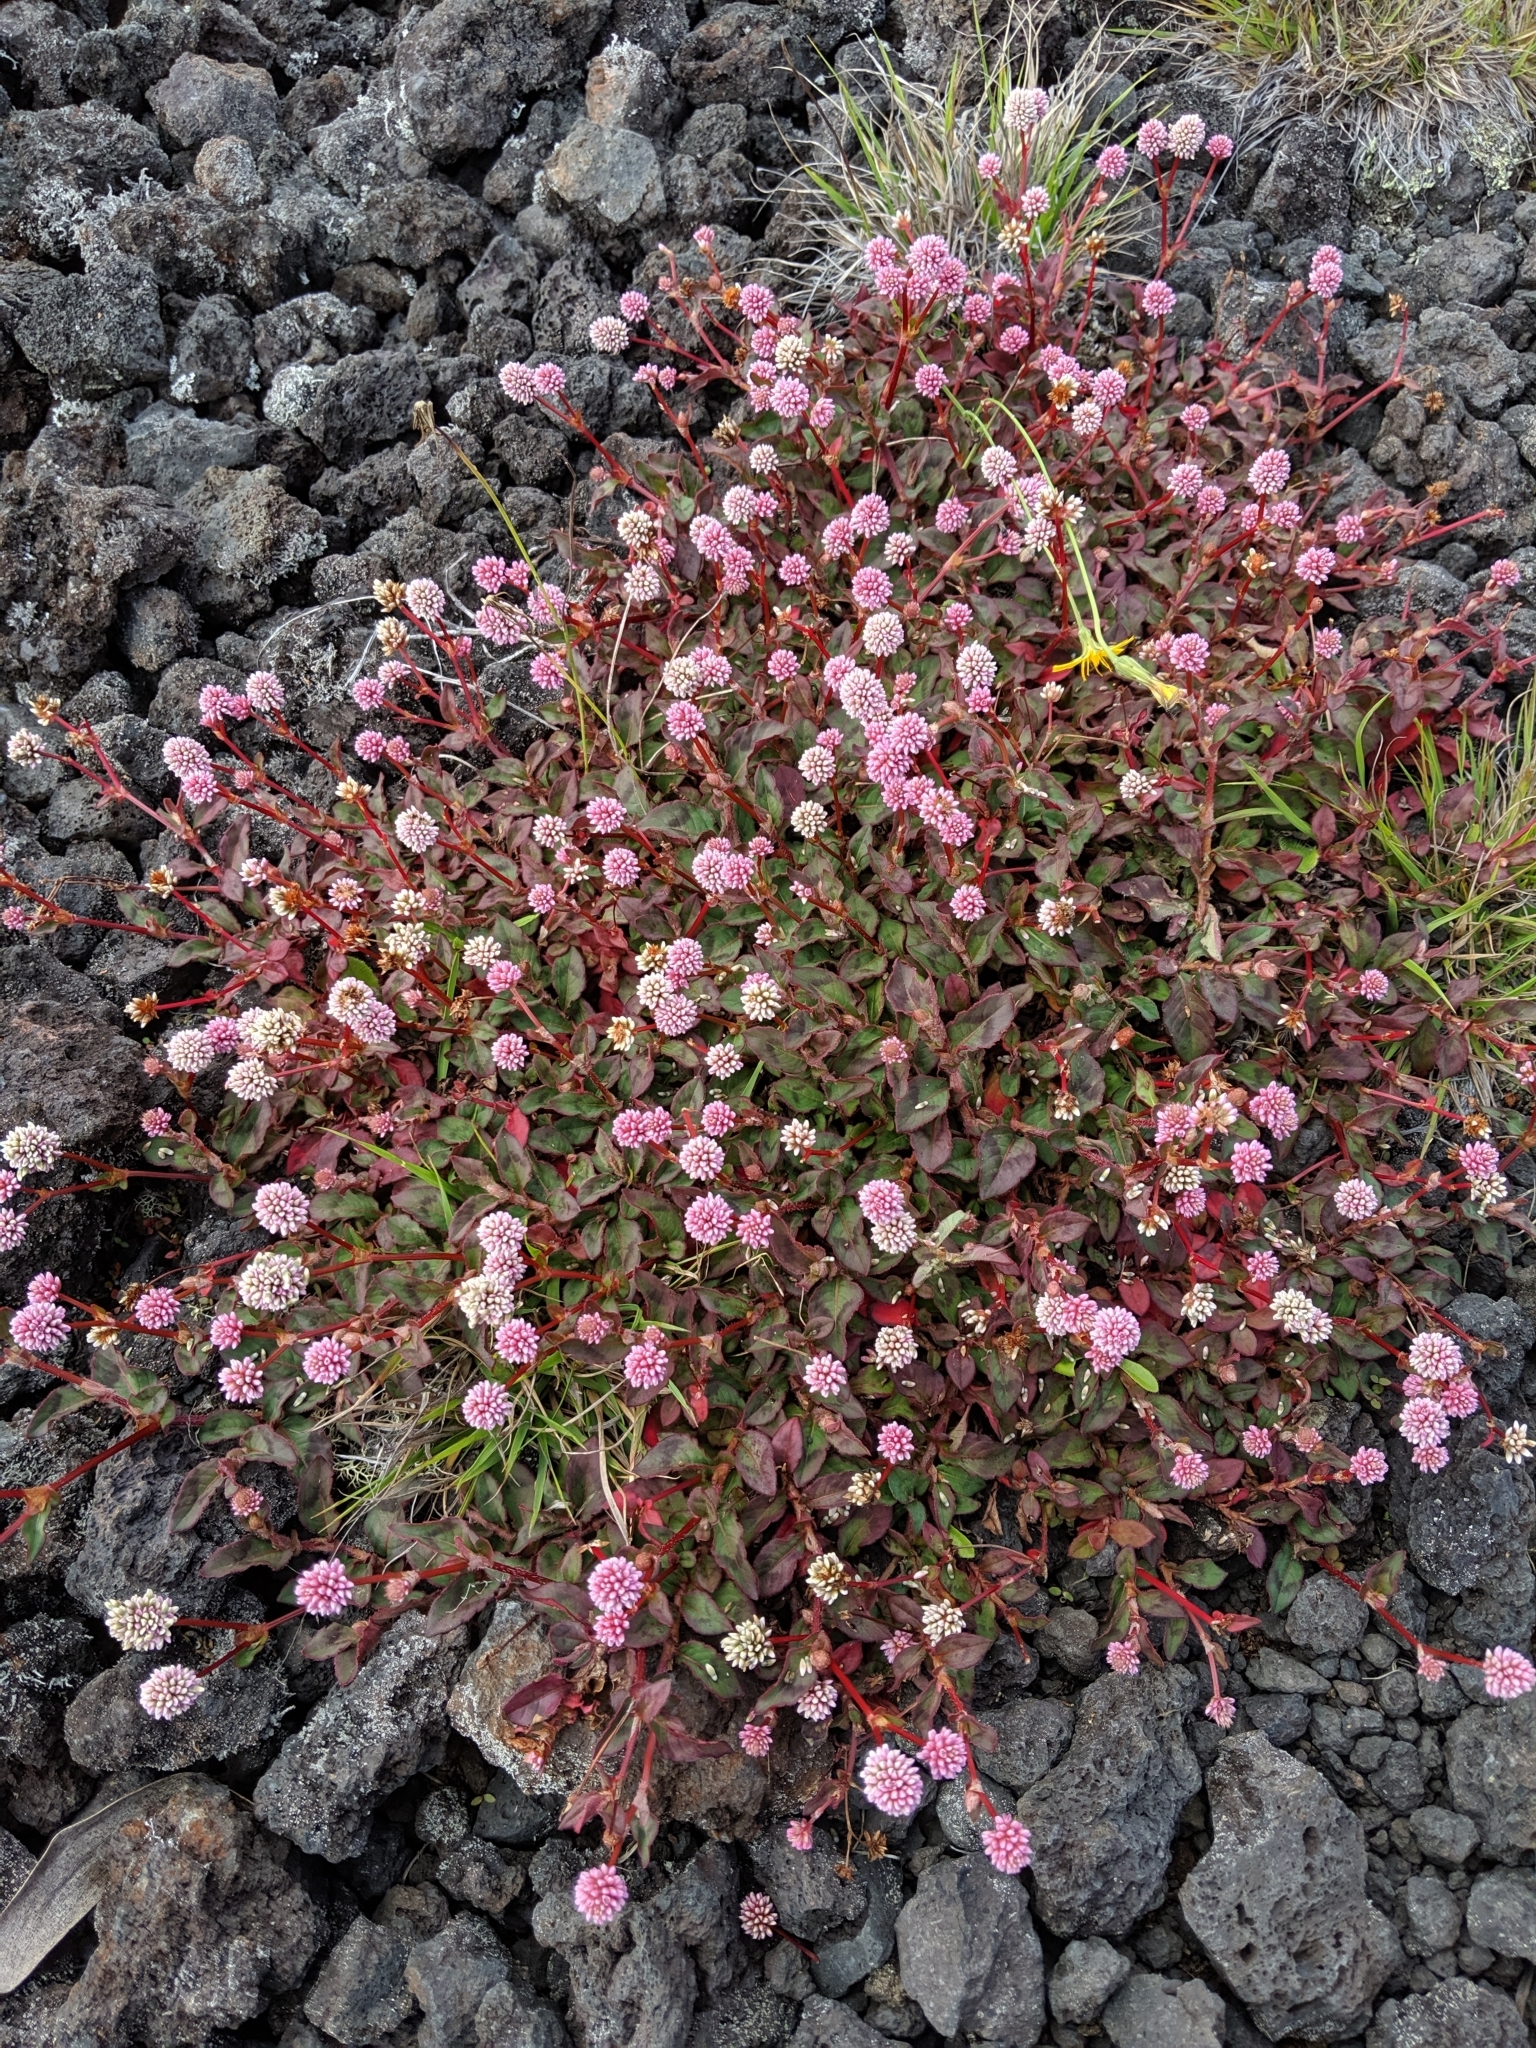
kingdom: Plantae
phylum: Tracheophyta
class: Magnoliopsida
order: Caryophyllales
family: Polygonaceae
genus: Persicaria
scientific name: Persicaria capitata
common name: Pinkhead smartweed
